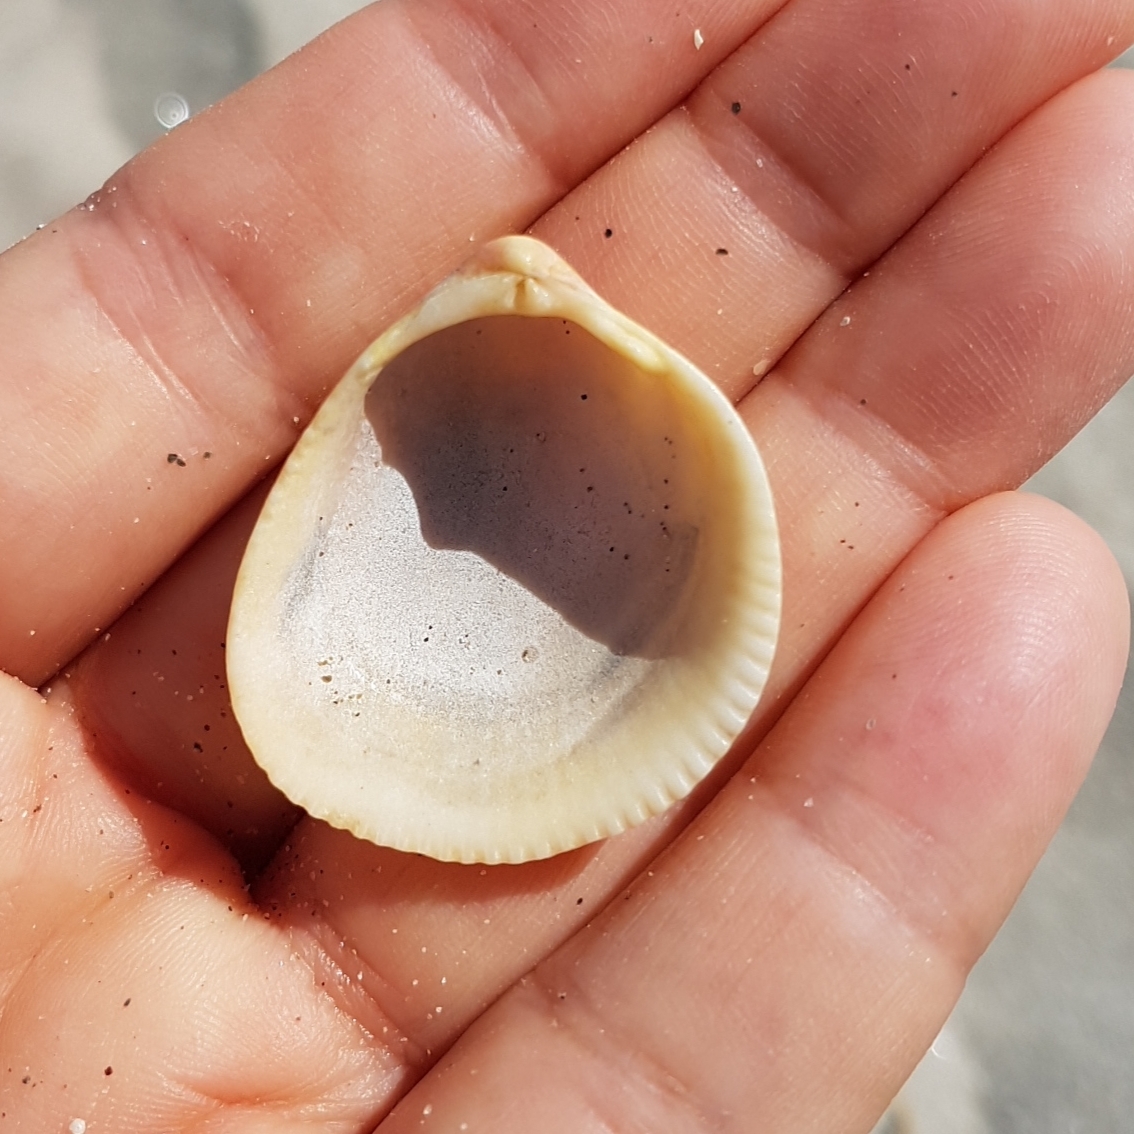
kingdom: Animalia
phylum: Mollusca
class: Bivalvia
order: Cardiida
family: Cardiidae
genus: Laevicardium
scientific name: Laevicardium oblongum
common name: Oblong cockle
